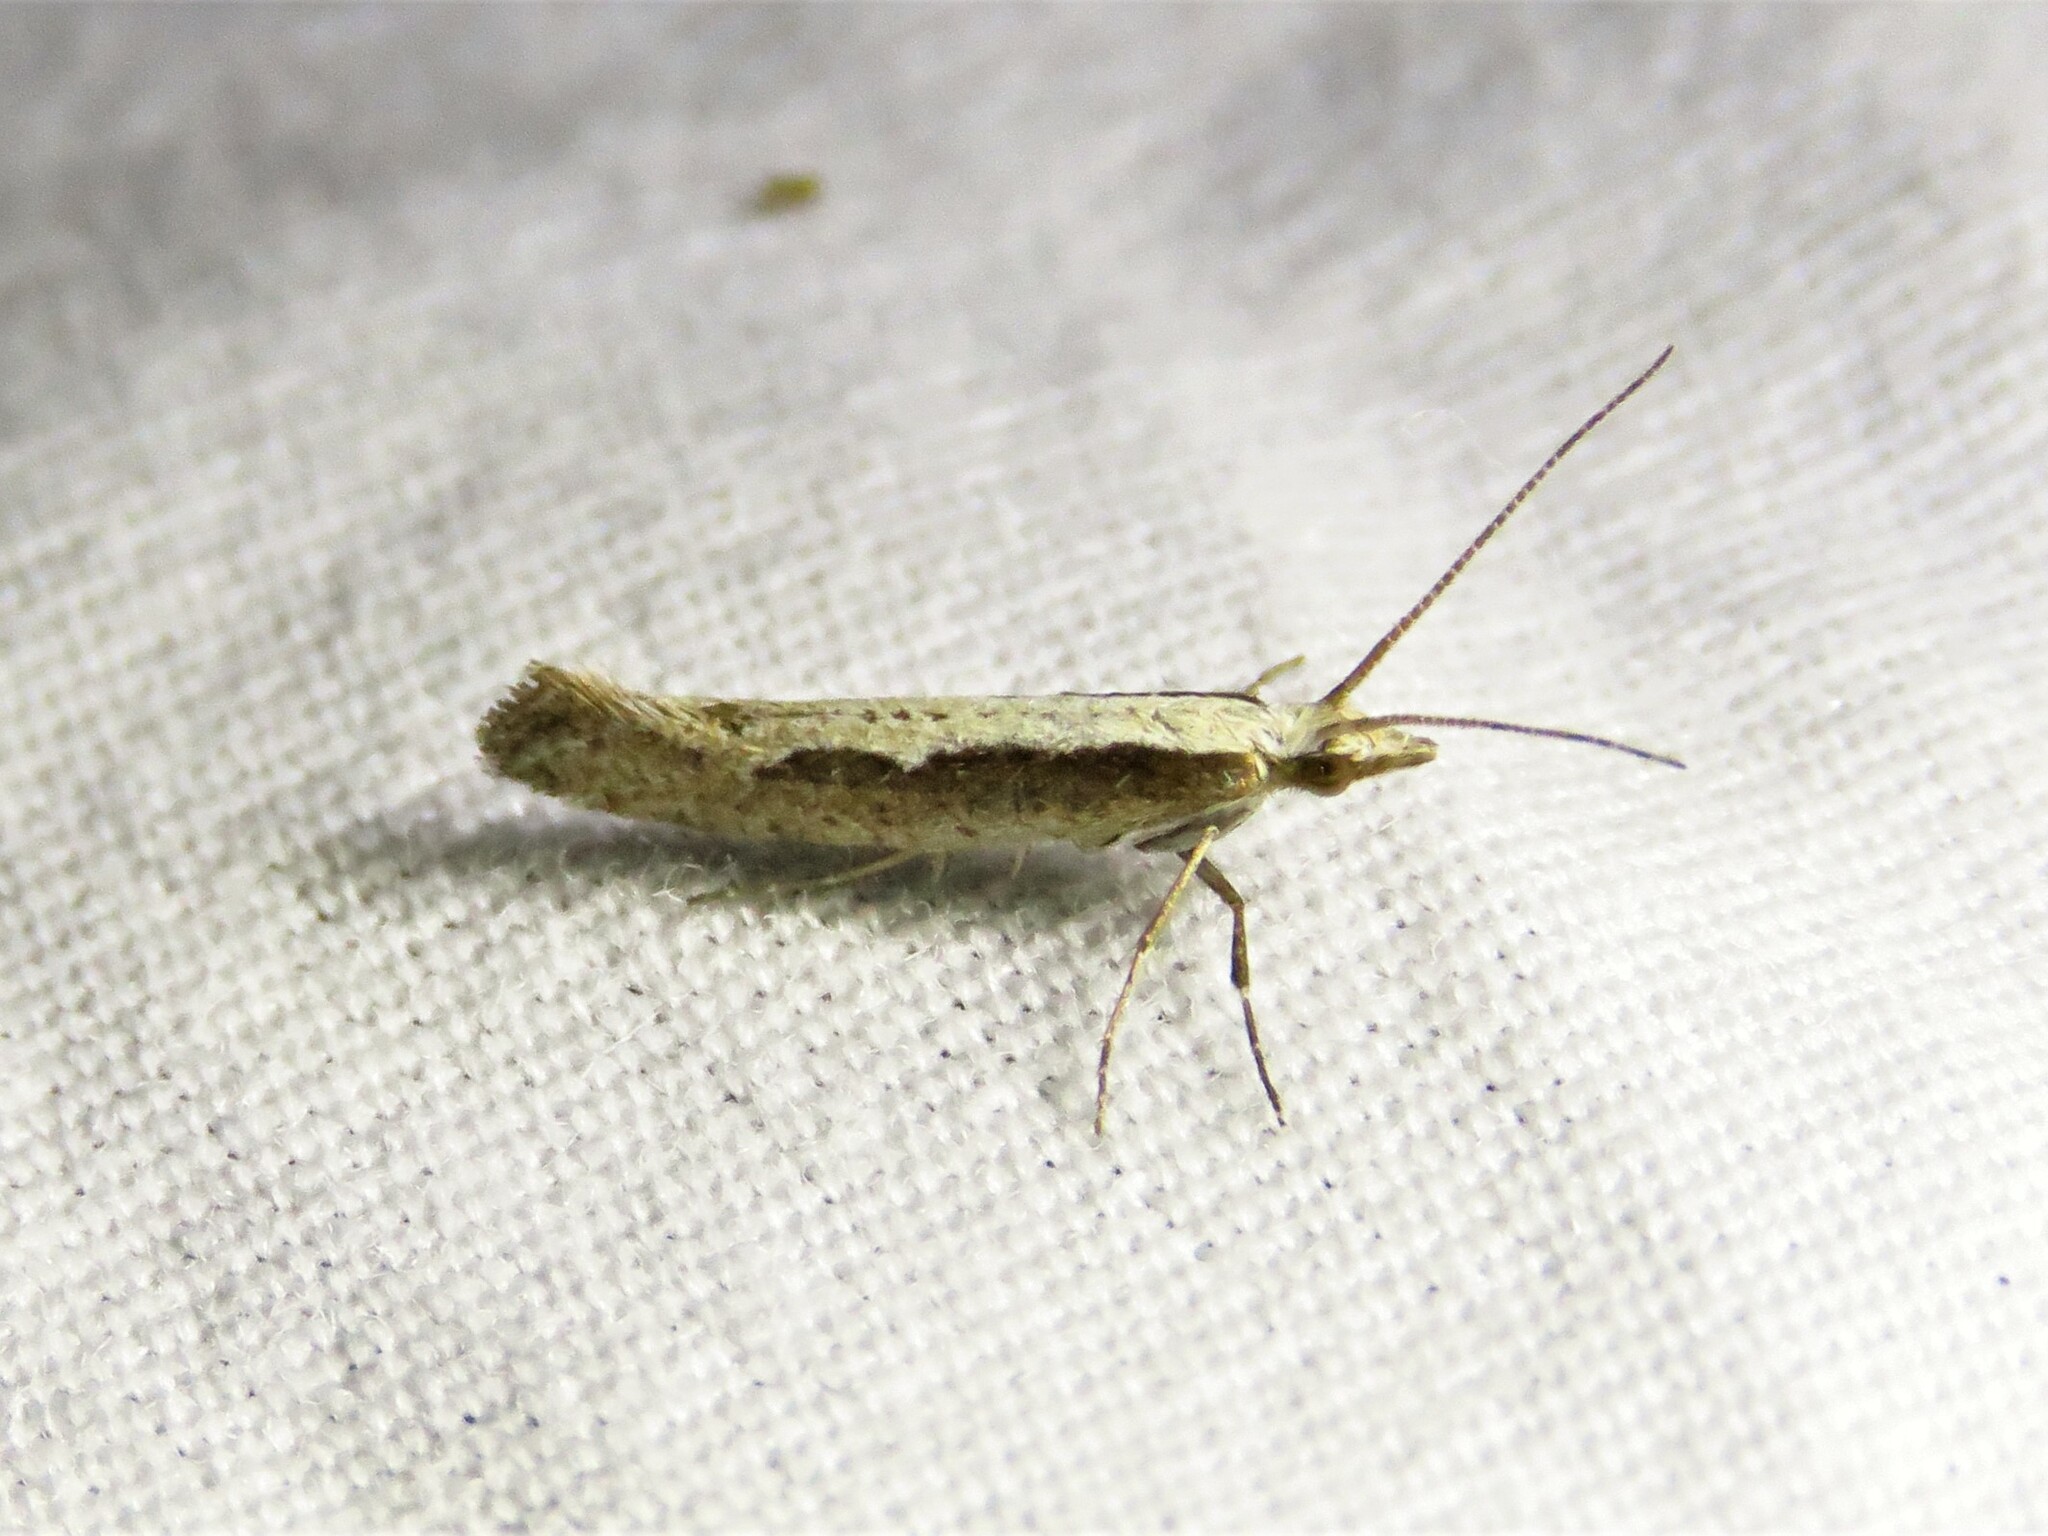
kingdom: Animalia
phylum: Arthropoda
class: Insecta
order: Lepidoptera
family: Plutellidae
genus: Plutella
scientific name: Plutella xylostella
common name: Diamond-back moth
